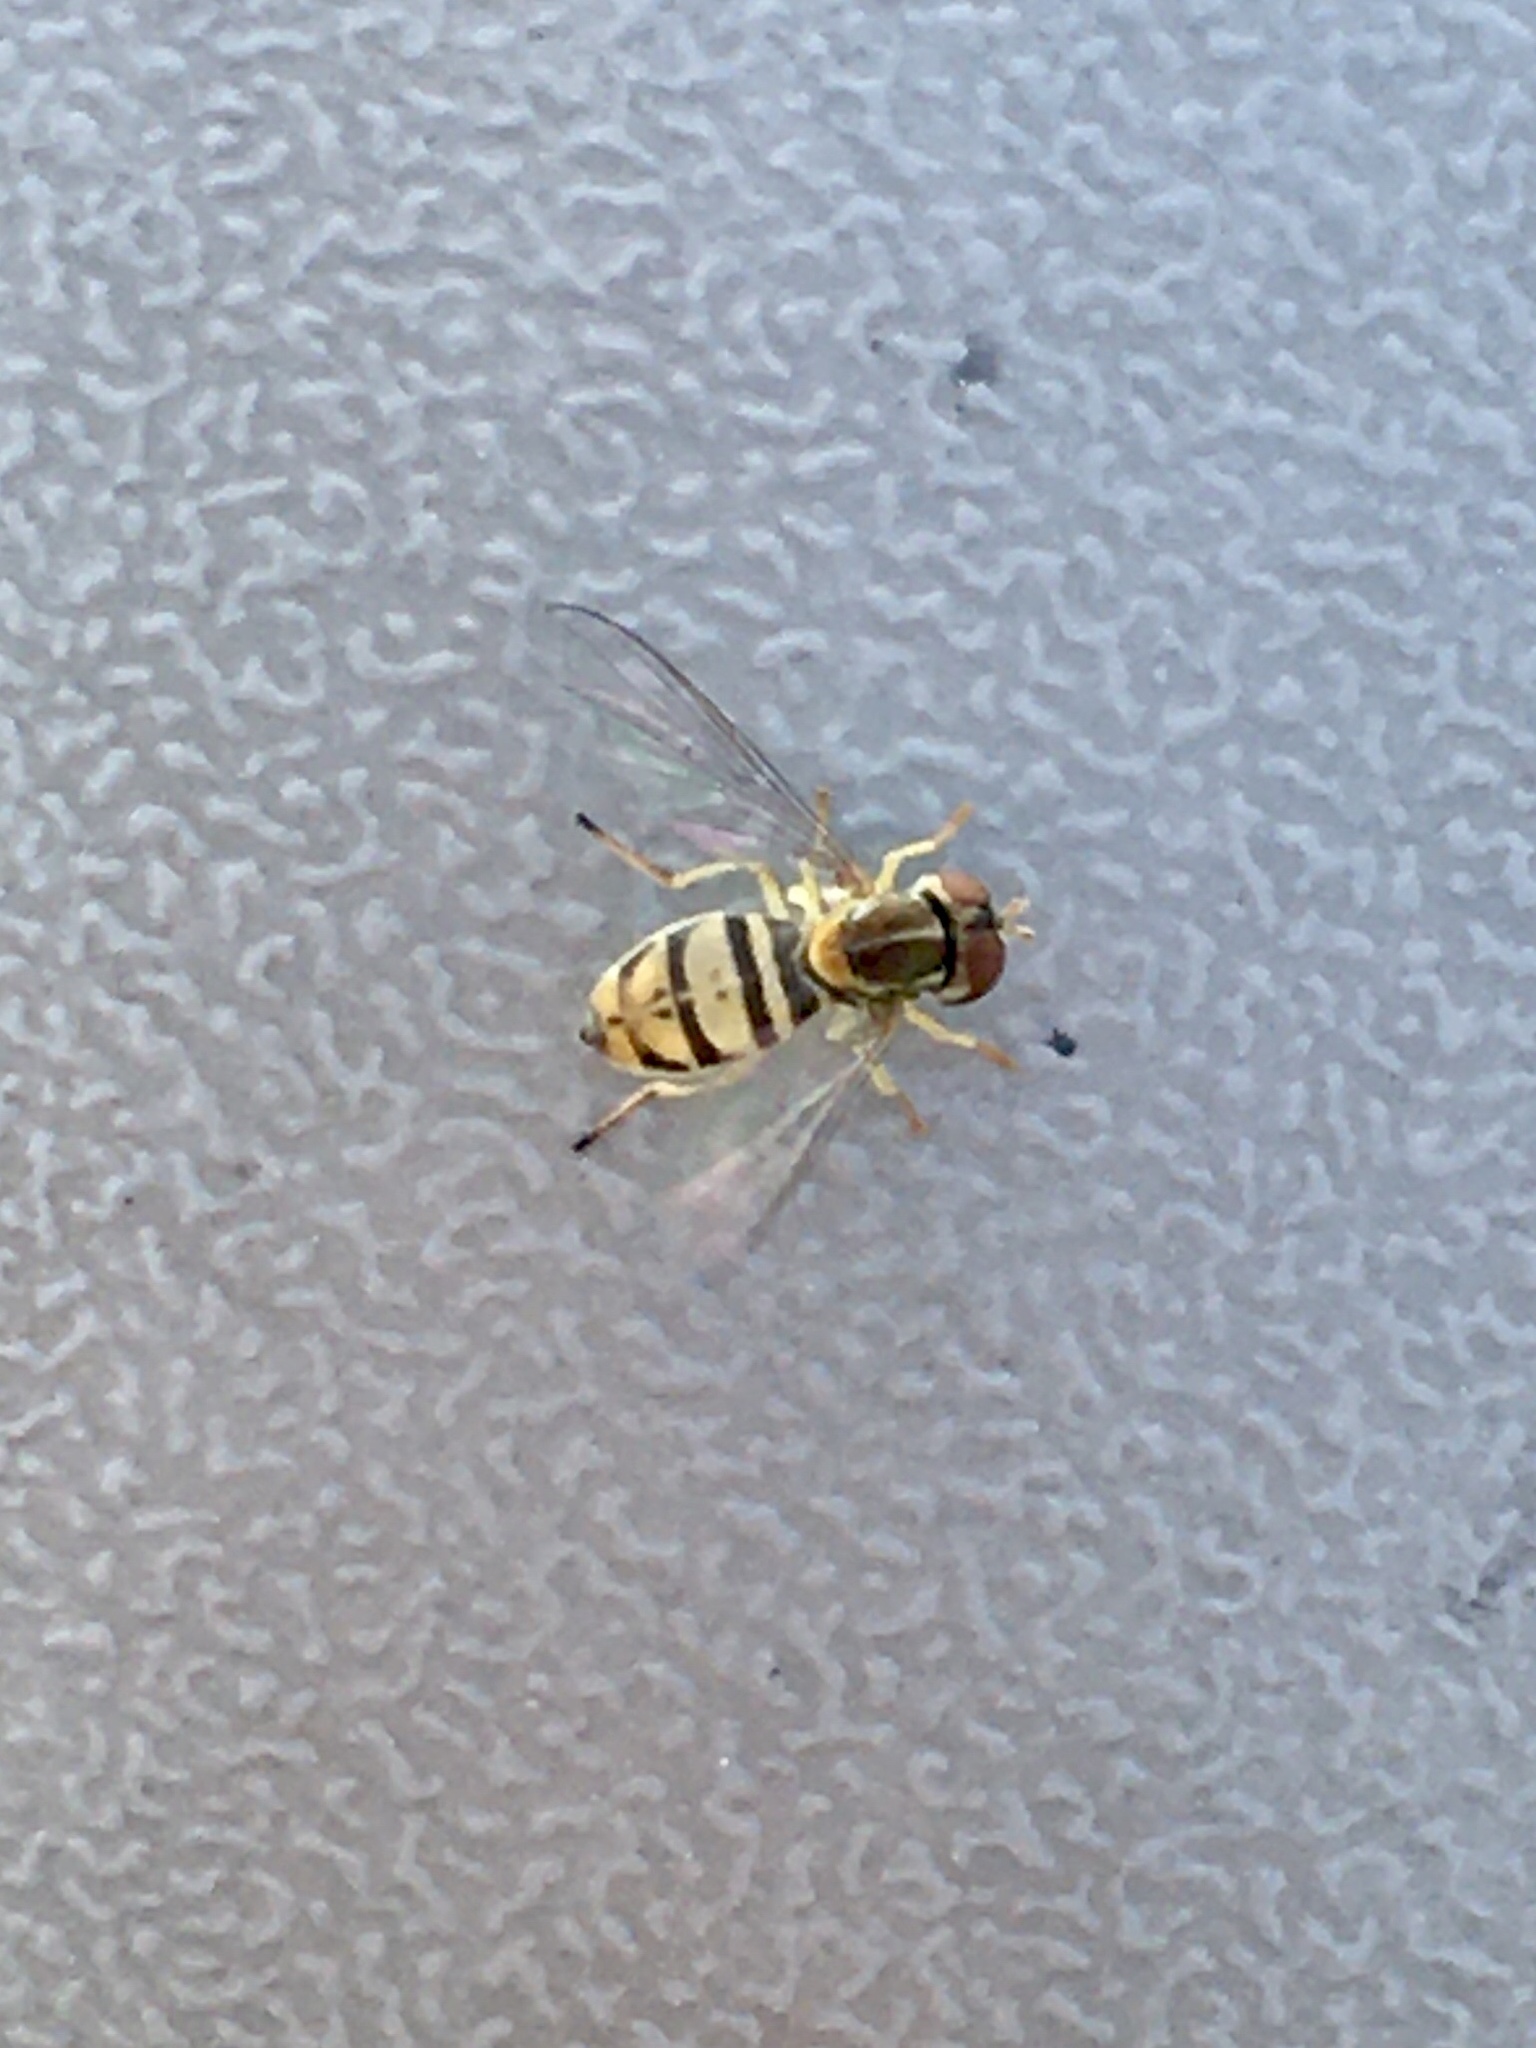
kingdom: Animalia
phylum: Arthropoda
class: Insecta
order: Diptera
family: Syrphidae
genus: Toxomerus
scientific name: Toxomerus marginatus
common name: Syrphid fly
